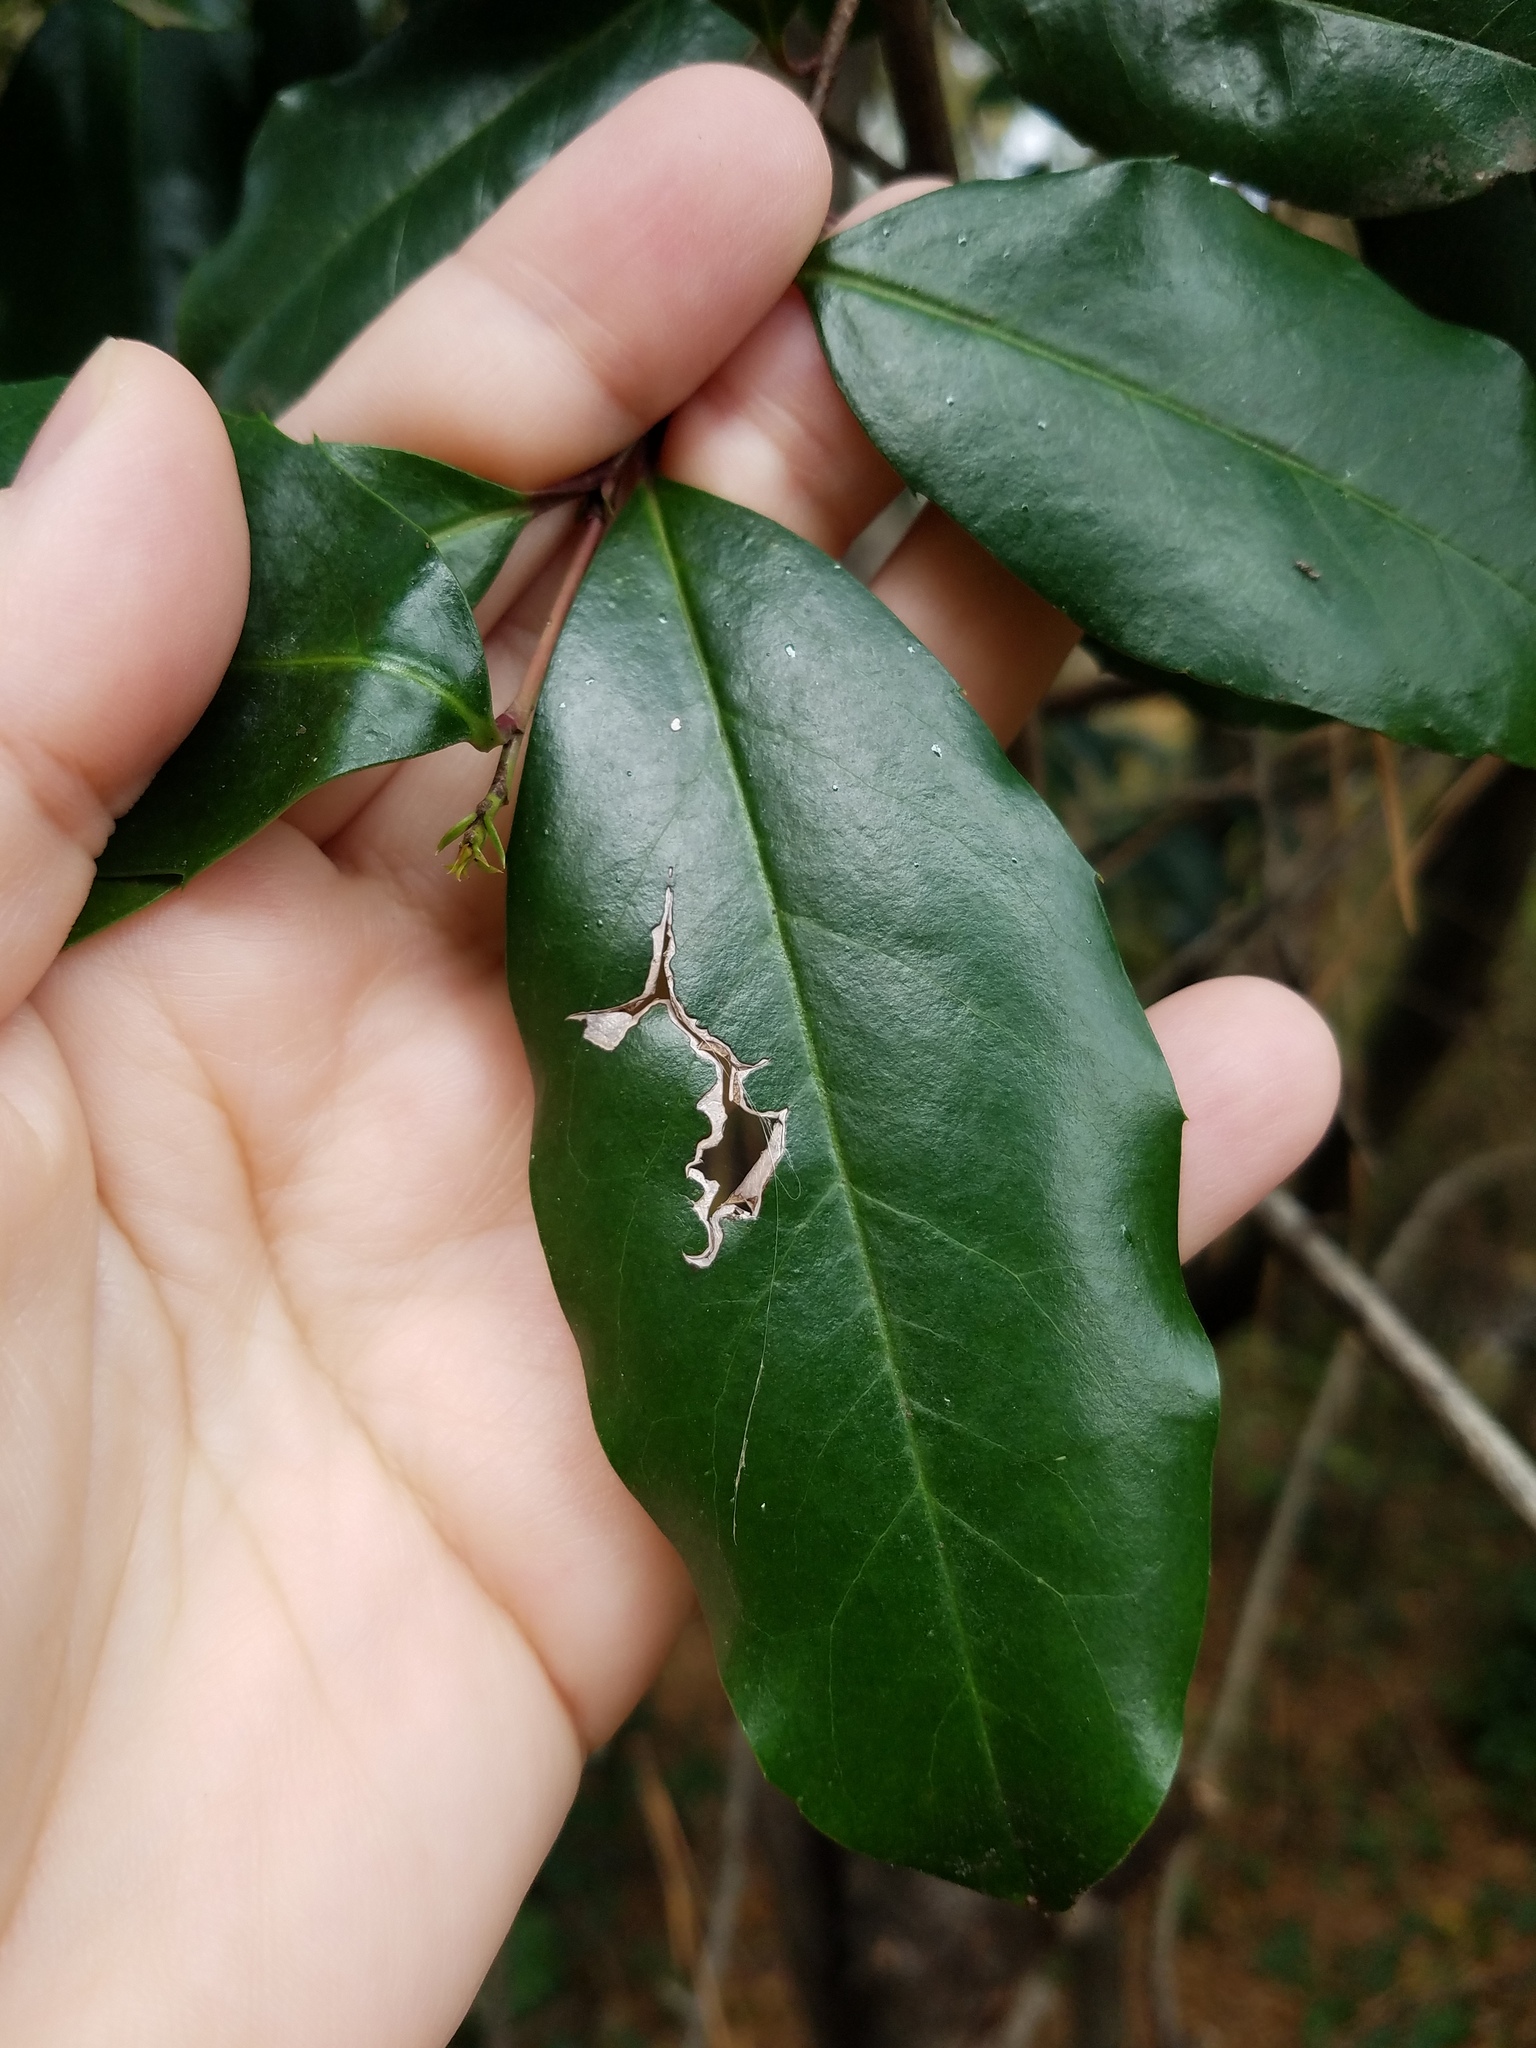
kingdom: Plantae
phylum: Tracheophyta
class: Magnoliopsida
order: Rosales
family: Rosaceae
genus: Prunus
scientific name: Prunus caroliniana
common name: Carolina laurel cherry
